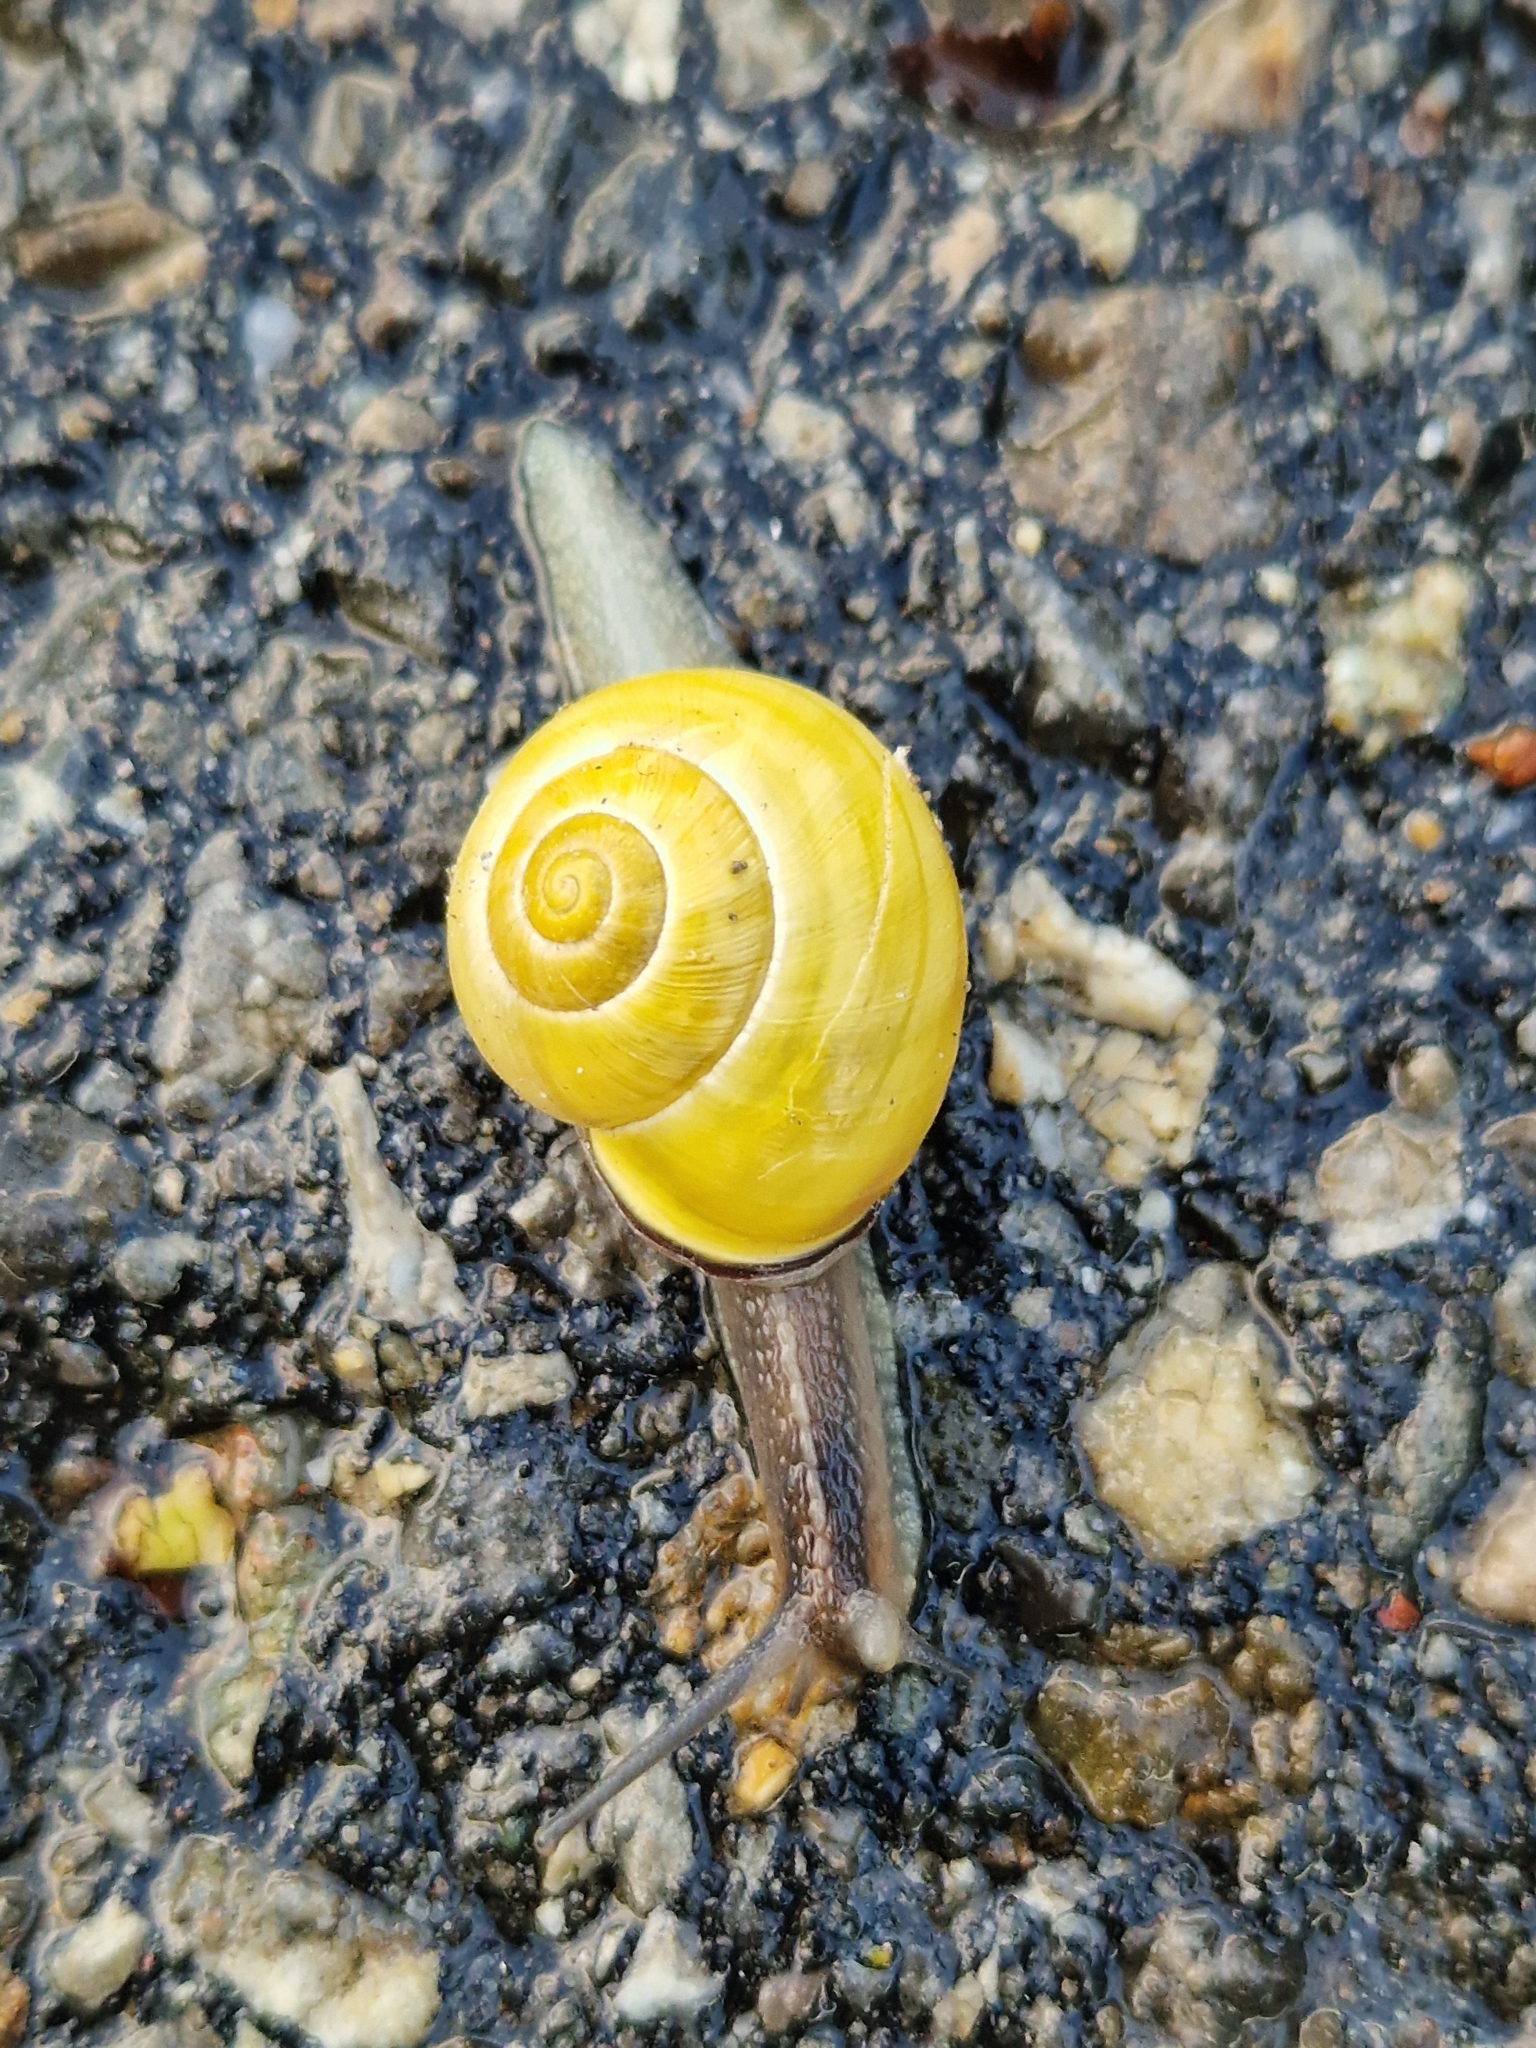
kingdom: Animalia
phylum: Mollusca
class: Gastropoda
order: Stylommatophora
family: Helicidae
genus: Cepaea
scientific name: Cepaea nemoralis
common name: Grovesnail
